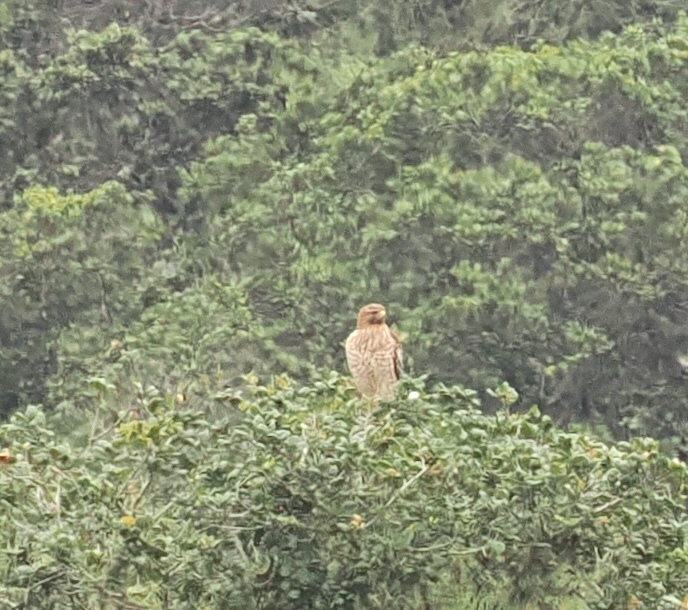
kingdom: Animalia
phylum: Chordata
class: Aves
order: Accipitriformes
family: Accipitridae
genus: Buteo
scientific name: Buteo lineatus
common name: Red-shouldered hawk
